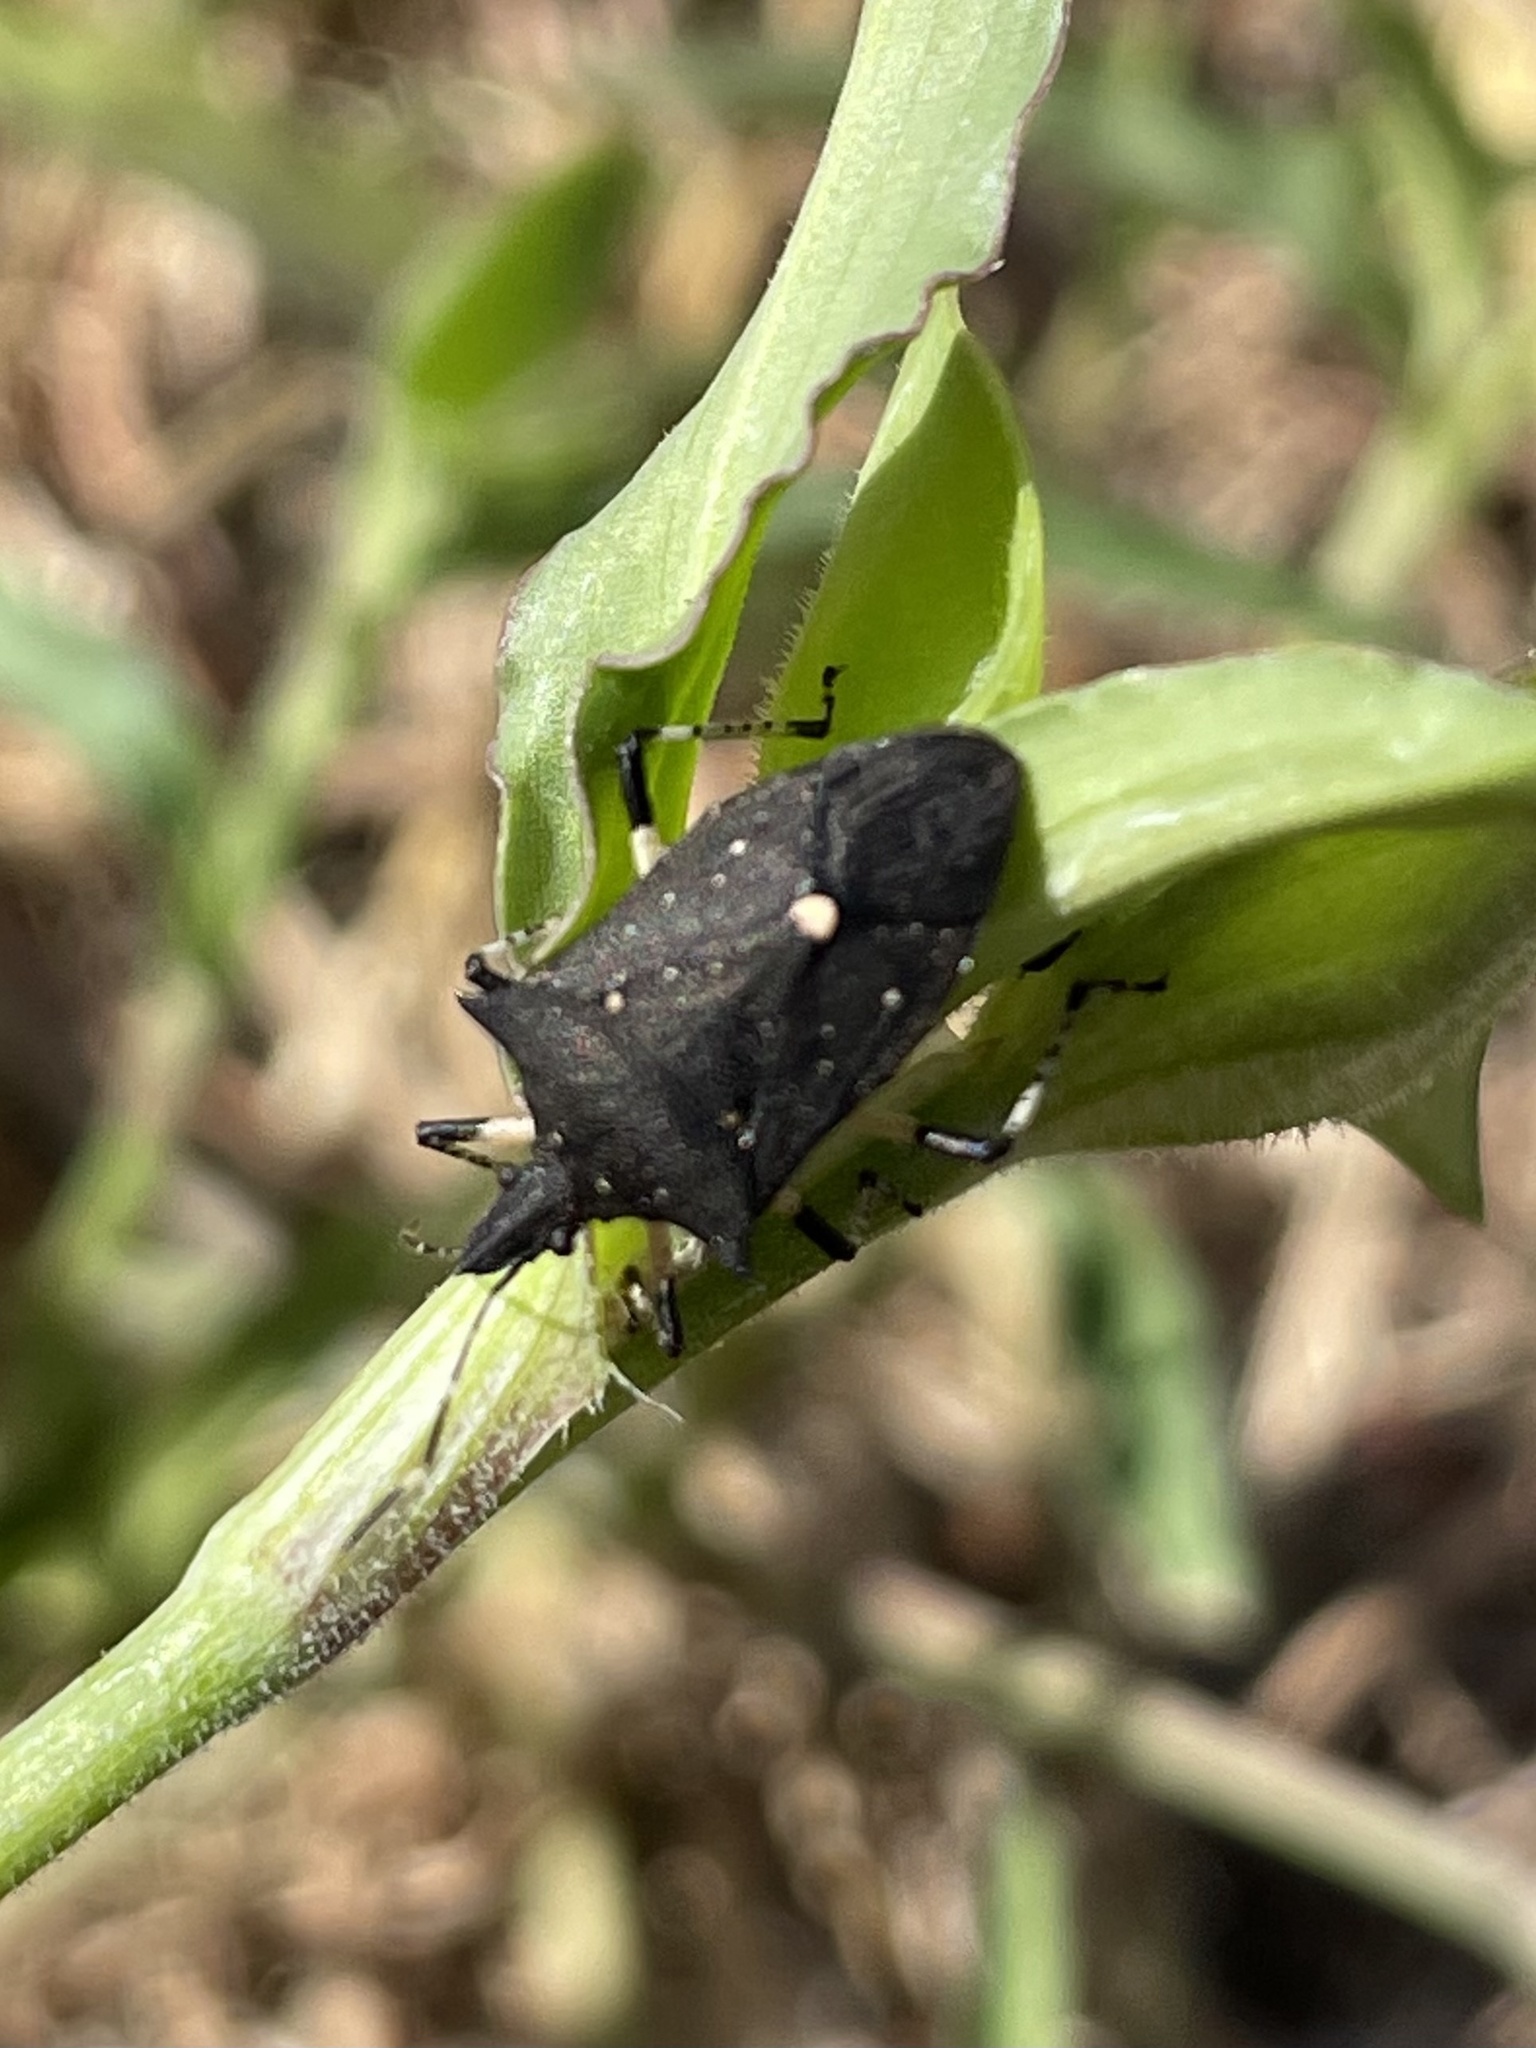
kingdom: Animalia
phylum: Arthropoda
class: Insecta
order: Hemiptera
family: Pentatomidae
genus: Proxys
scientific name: Proxys punctulatus
